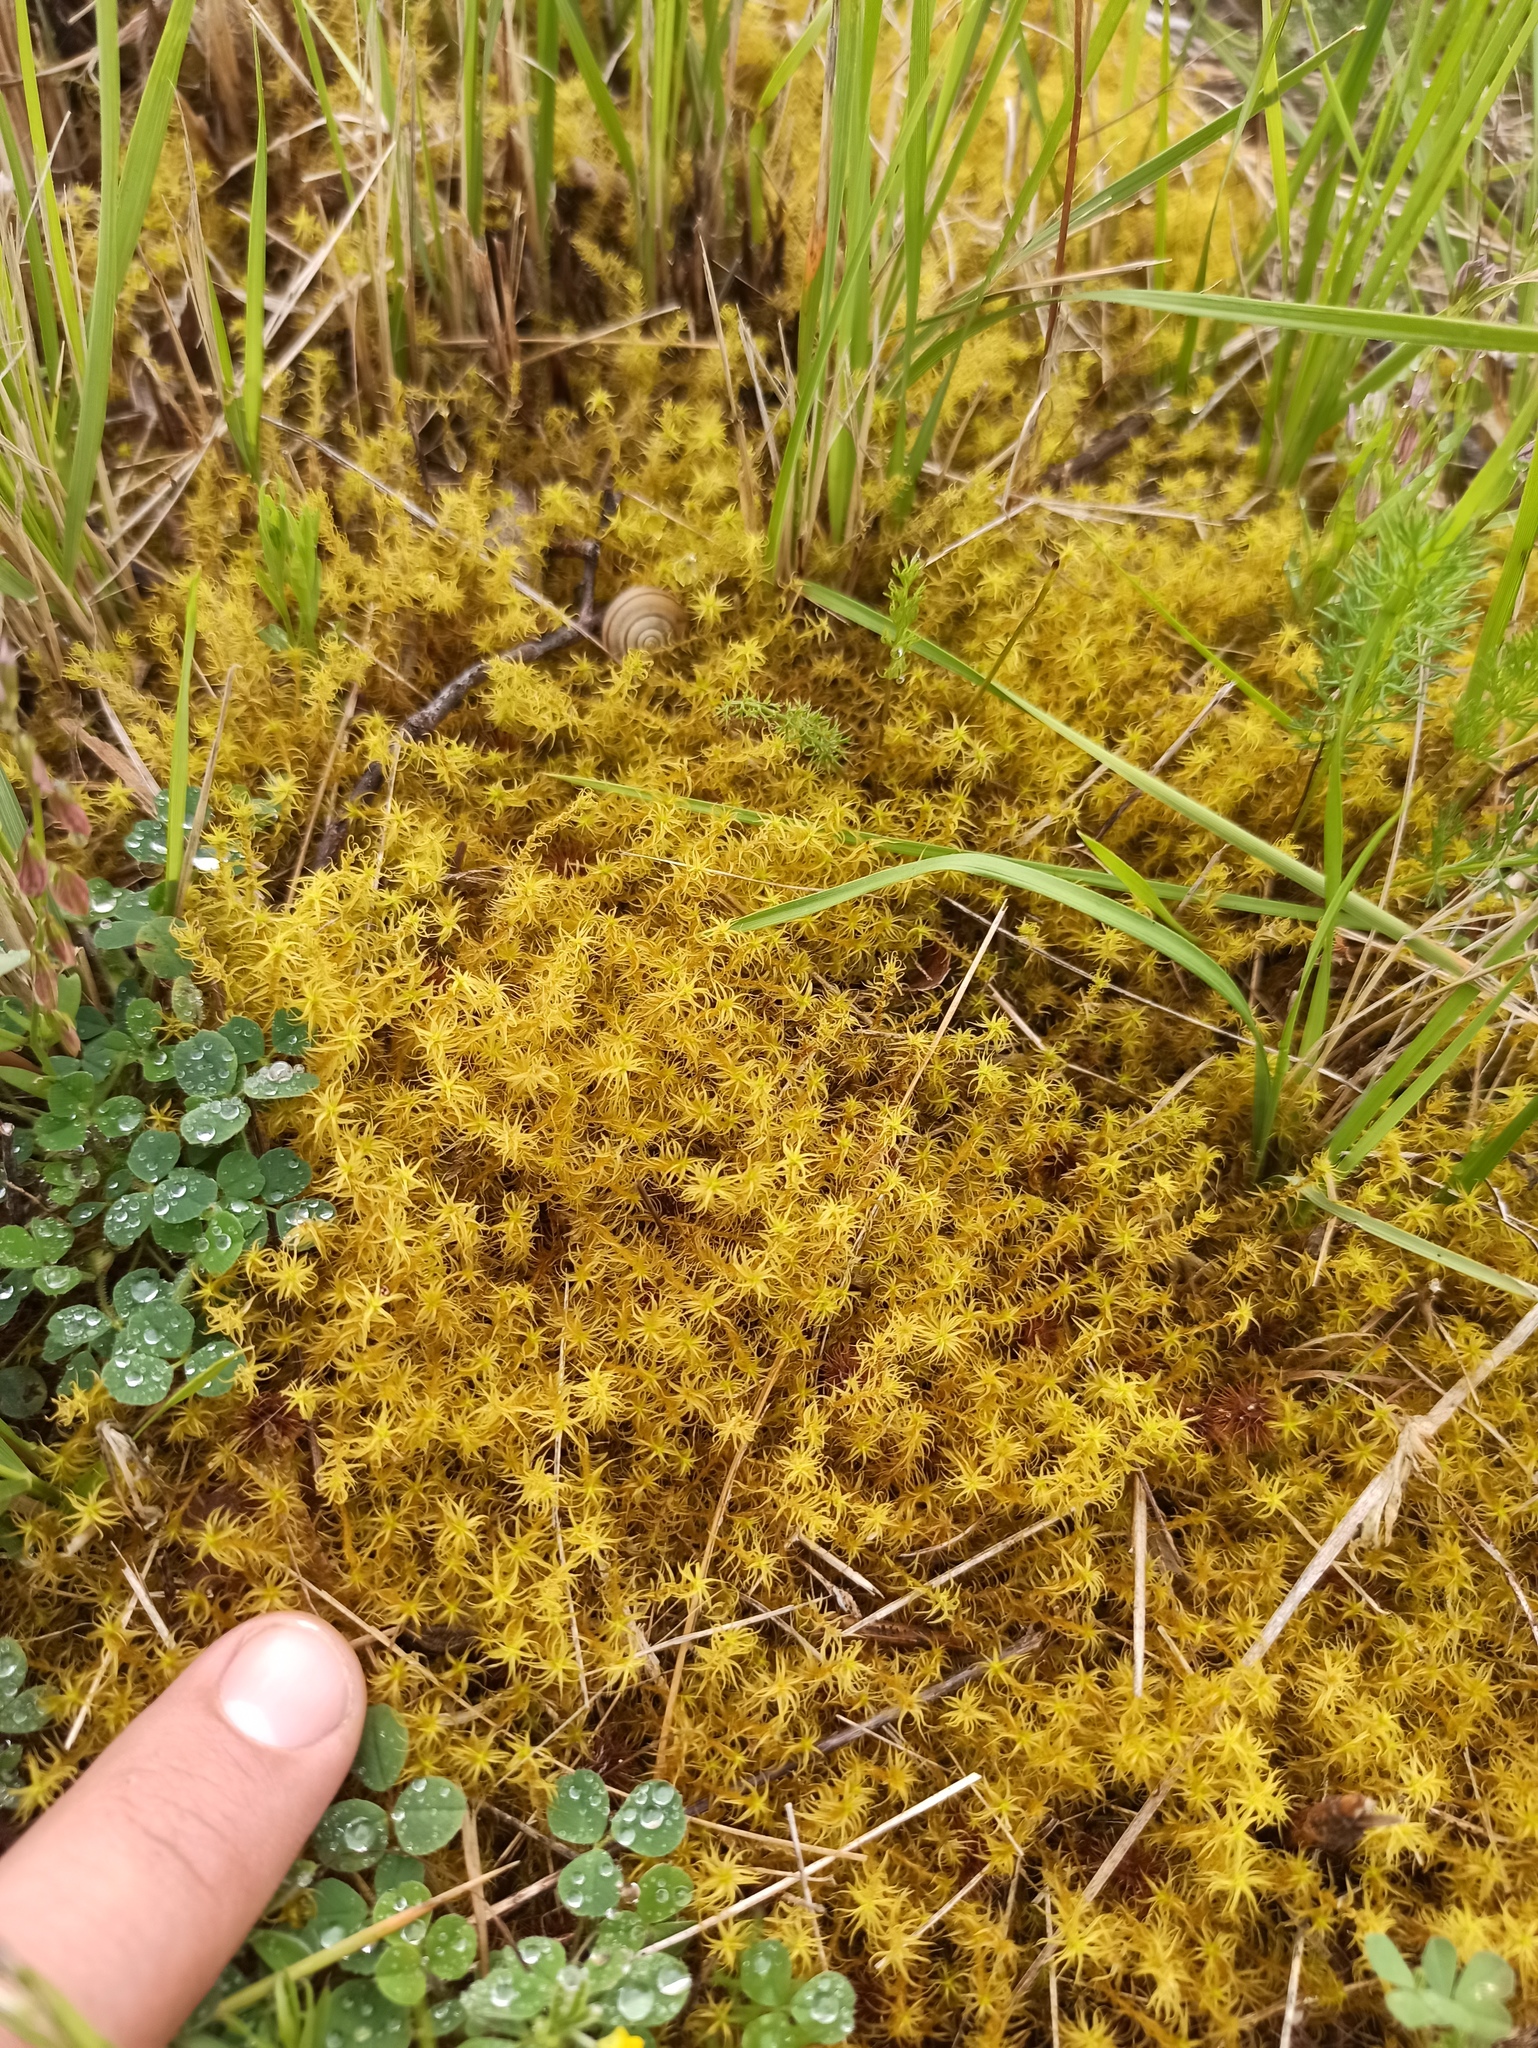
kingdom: Plantae
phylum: Bryophyta
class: Bryopsida
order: Pottiales
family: Pottiaceae
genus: Pleurochaete
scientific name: Pleurochaete squarrosa
